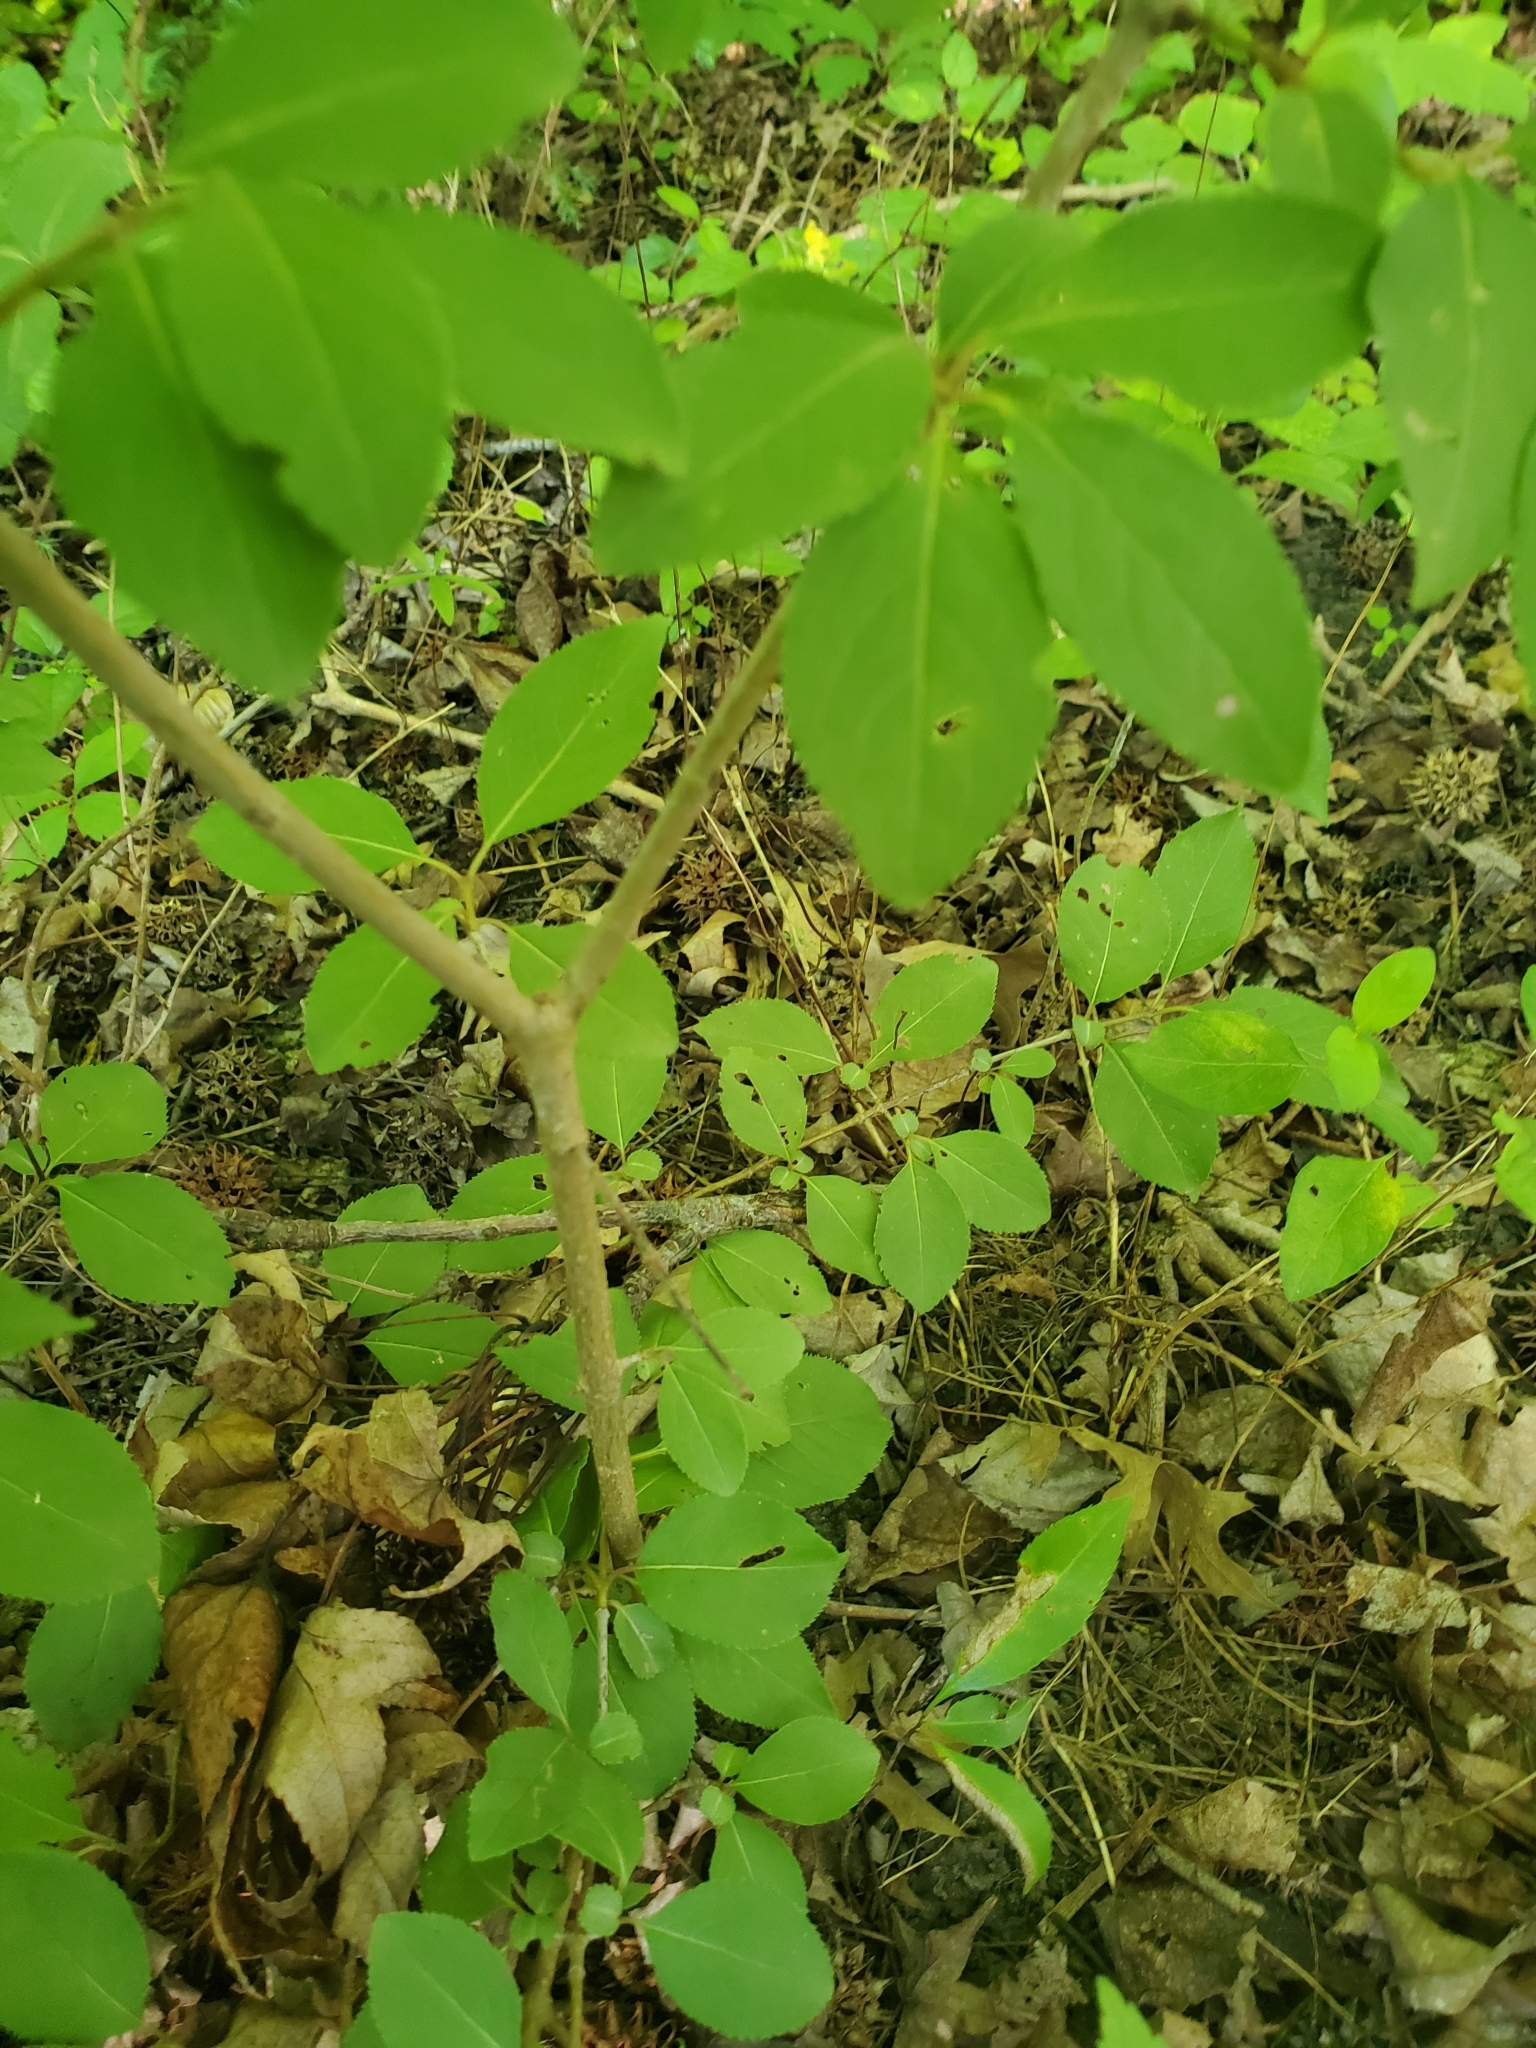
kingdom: Plantae
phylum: Tracheophyta
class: Magnoliopsida
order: Dipsacales
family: Viburnaceae
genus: Viburnum
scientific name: Viburnum prunifolium
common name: Black haw
